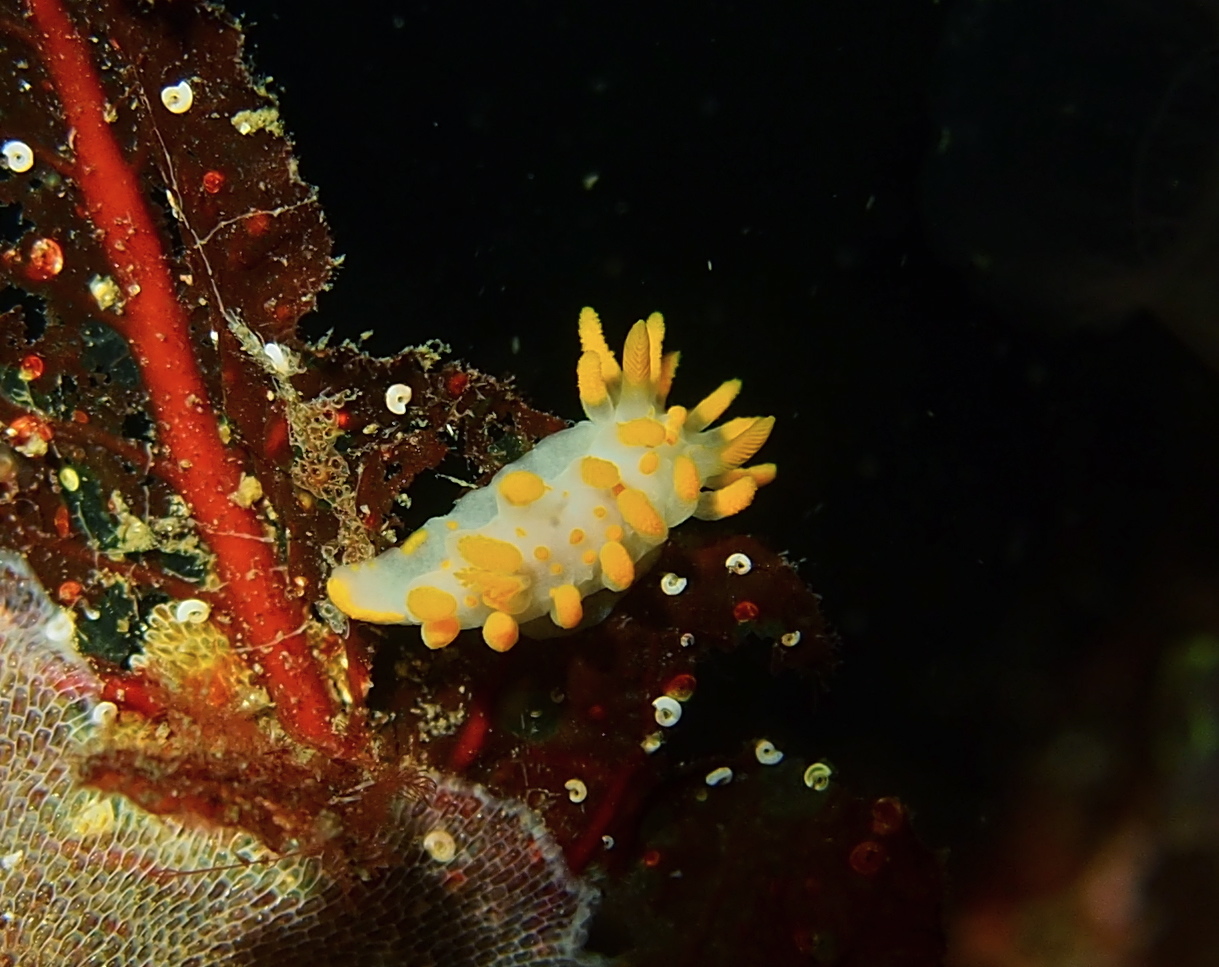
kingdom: Animalia
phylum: Mollusca
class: Gastropoda
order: Nudibranchia
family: Polyceridae
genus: Limacia
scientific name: Limacia clavigera
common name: Orange-clubbed sea slug
